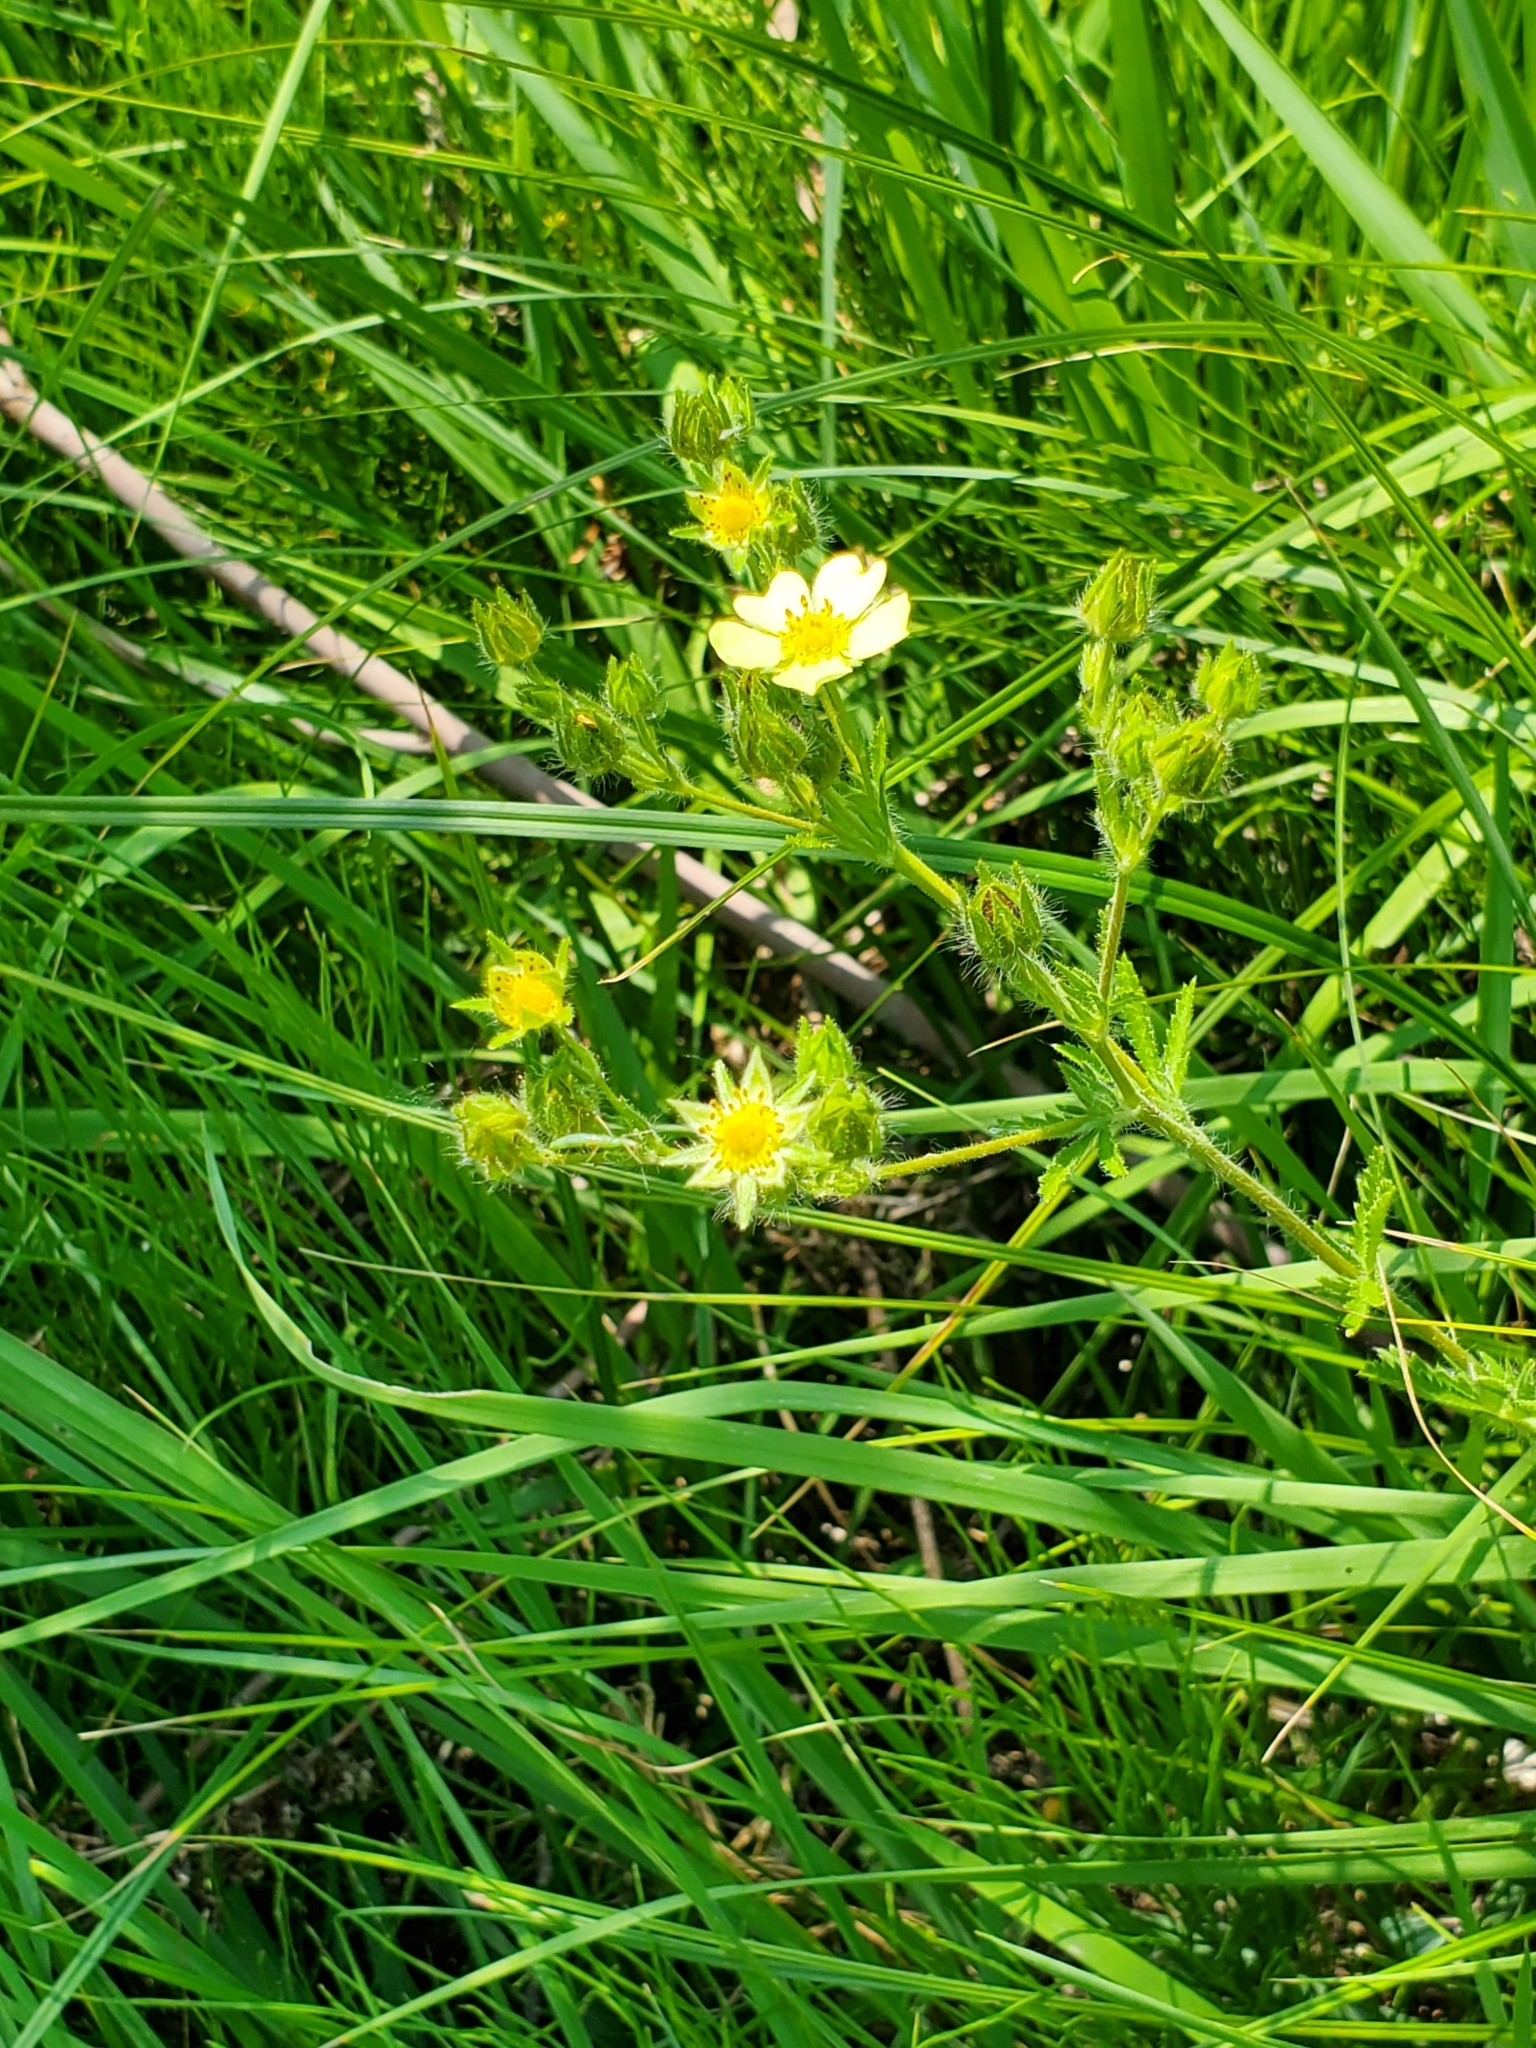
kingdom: Plantae
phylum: Tracheophyta
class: Magnoliopsida
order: Rosales
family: Rosaceae
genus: Potentilla
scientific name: Potentilla recta
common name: Sulphur cinquefoil
